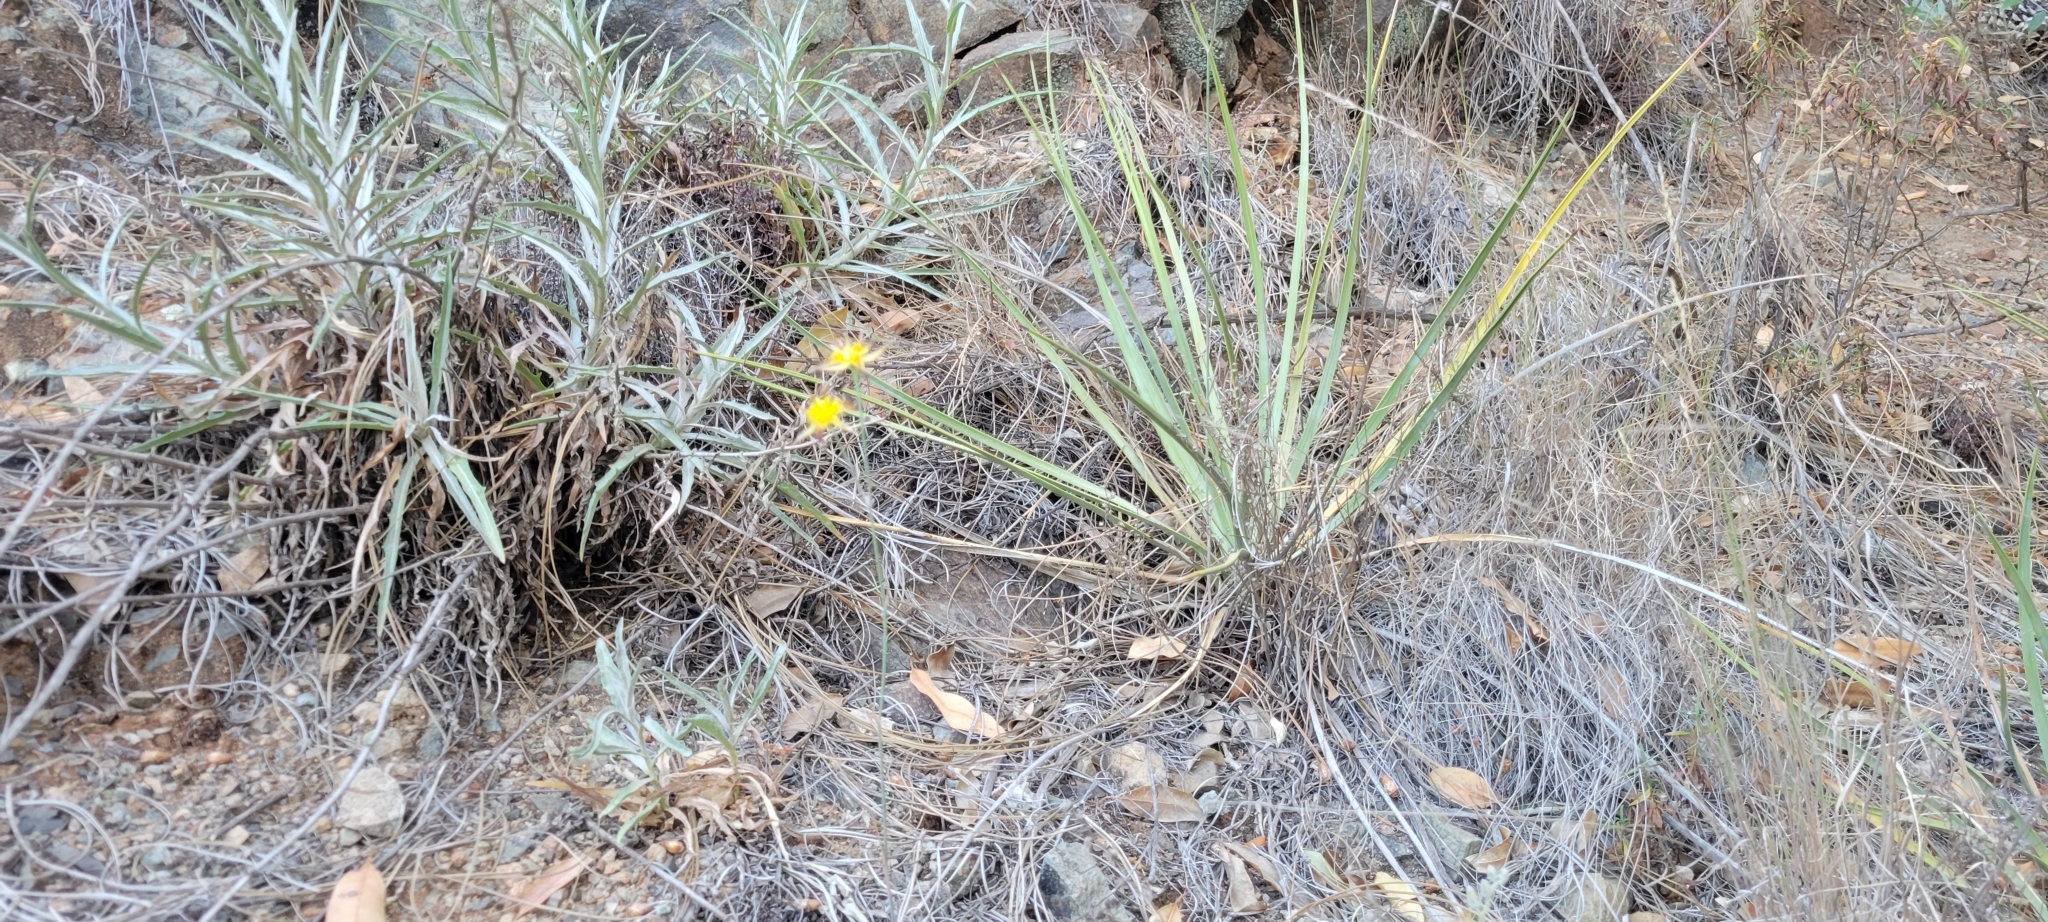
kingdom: Plantae
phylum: Tracheophyta
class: Liliopsida
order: Liliales
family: Liliaceae
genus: Calochortus
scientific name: Calochortus obispoensis
